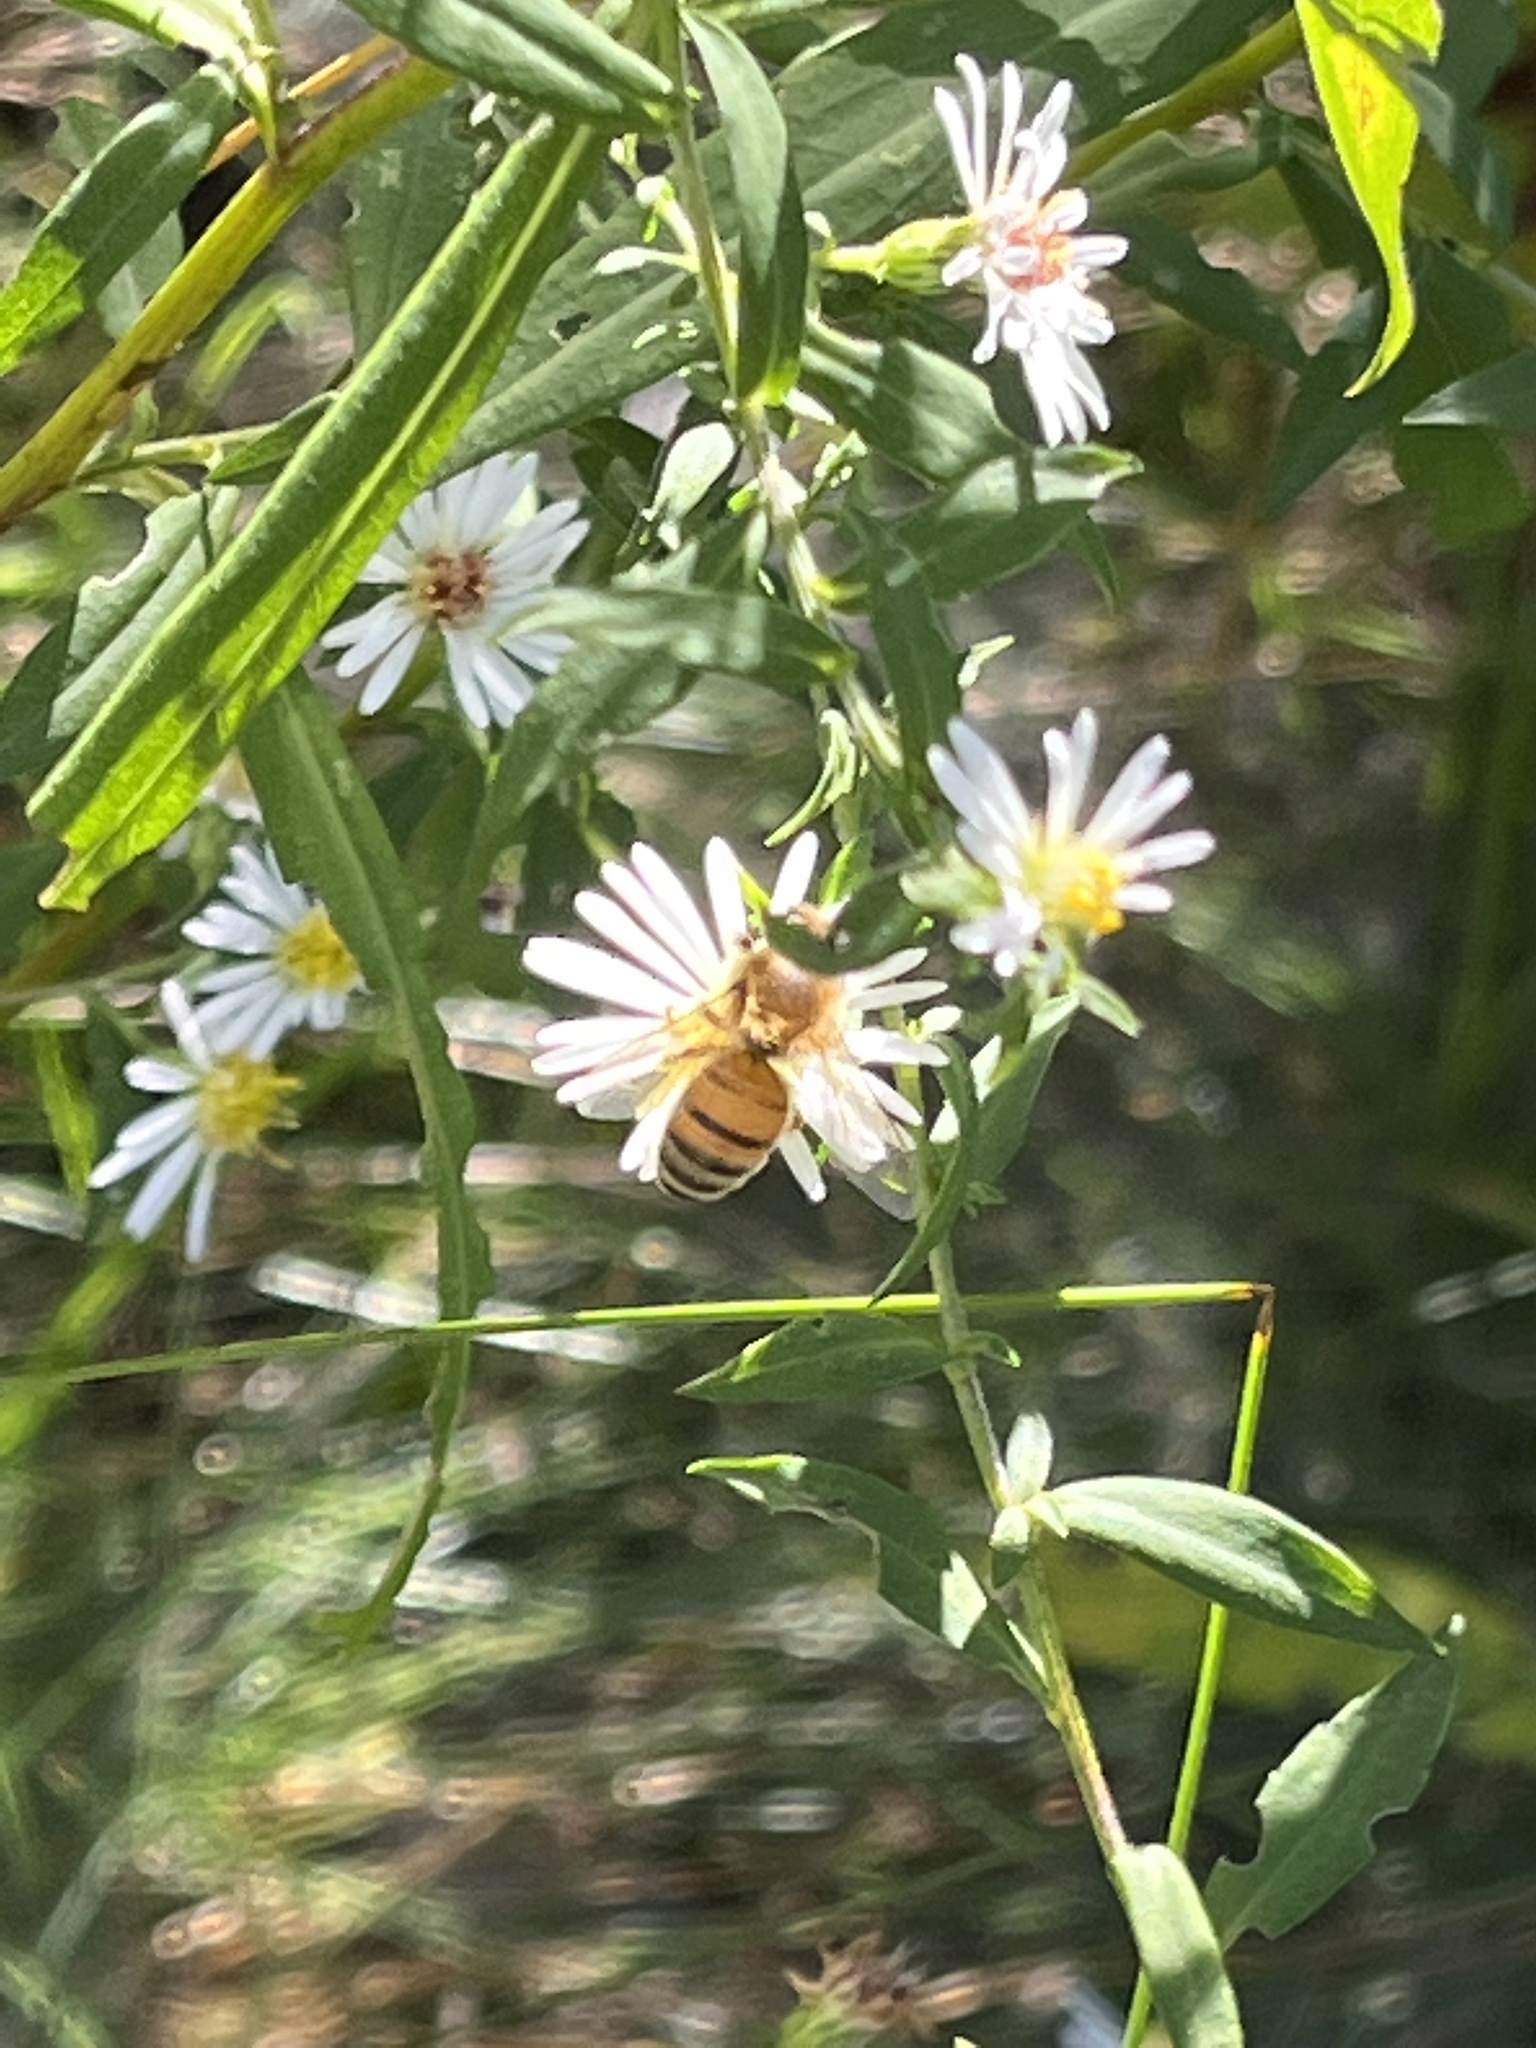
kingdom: Animalia
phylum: Arthropoda
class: Insecta
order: Hymenoptera
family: Apidae
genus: Apis
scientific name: Apis mellifera
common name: Honey bee
